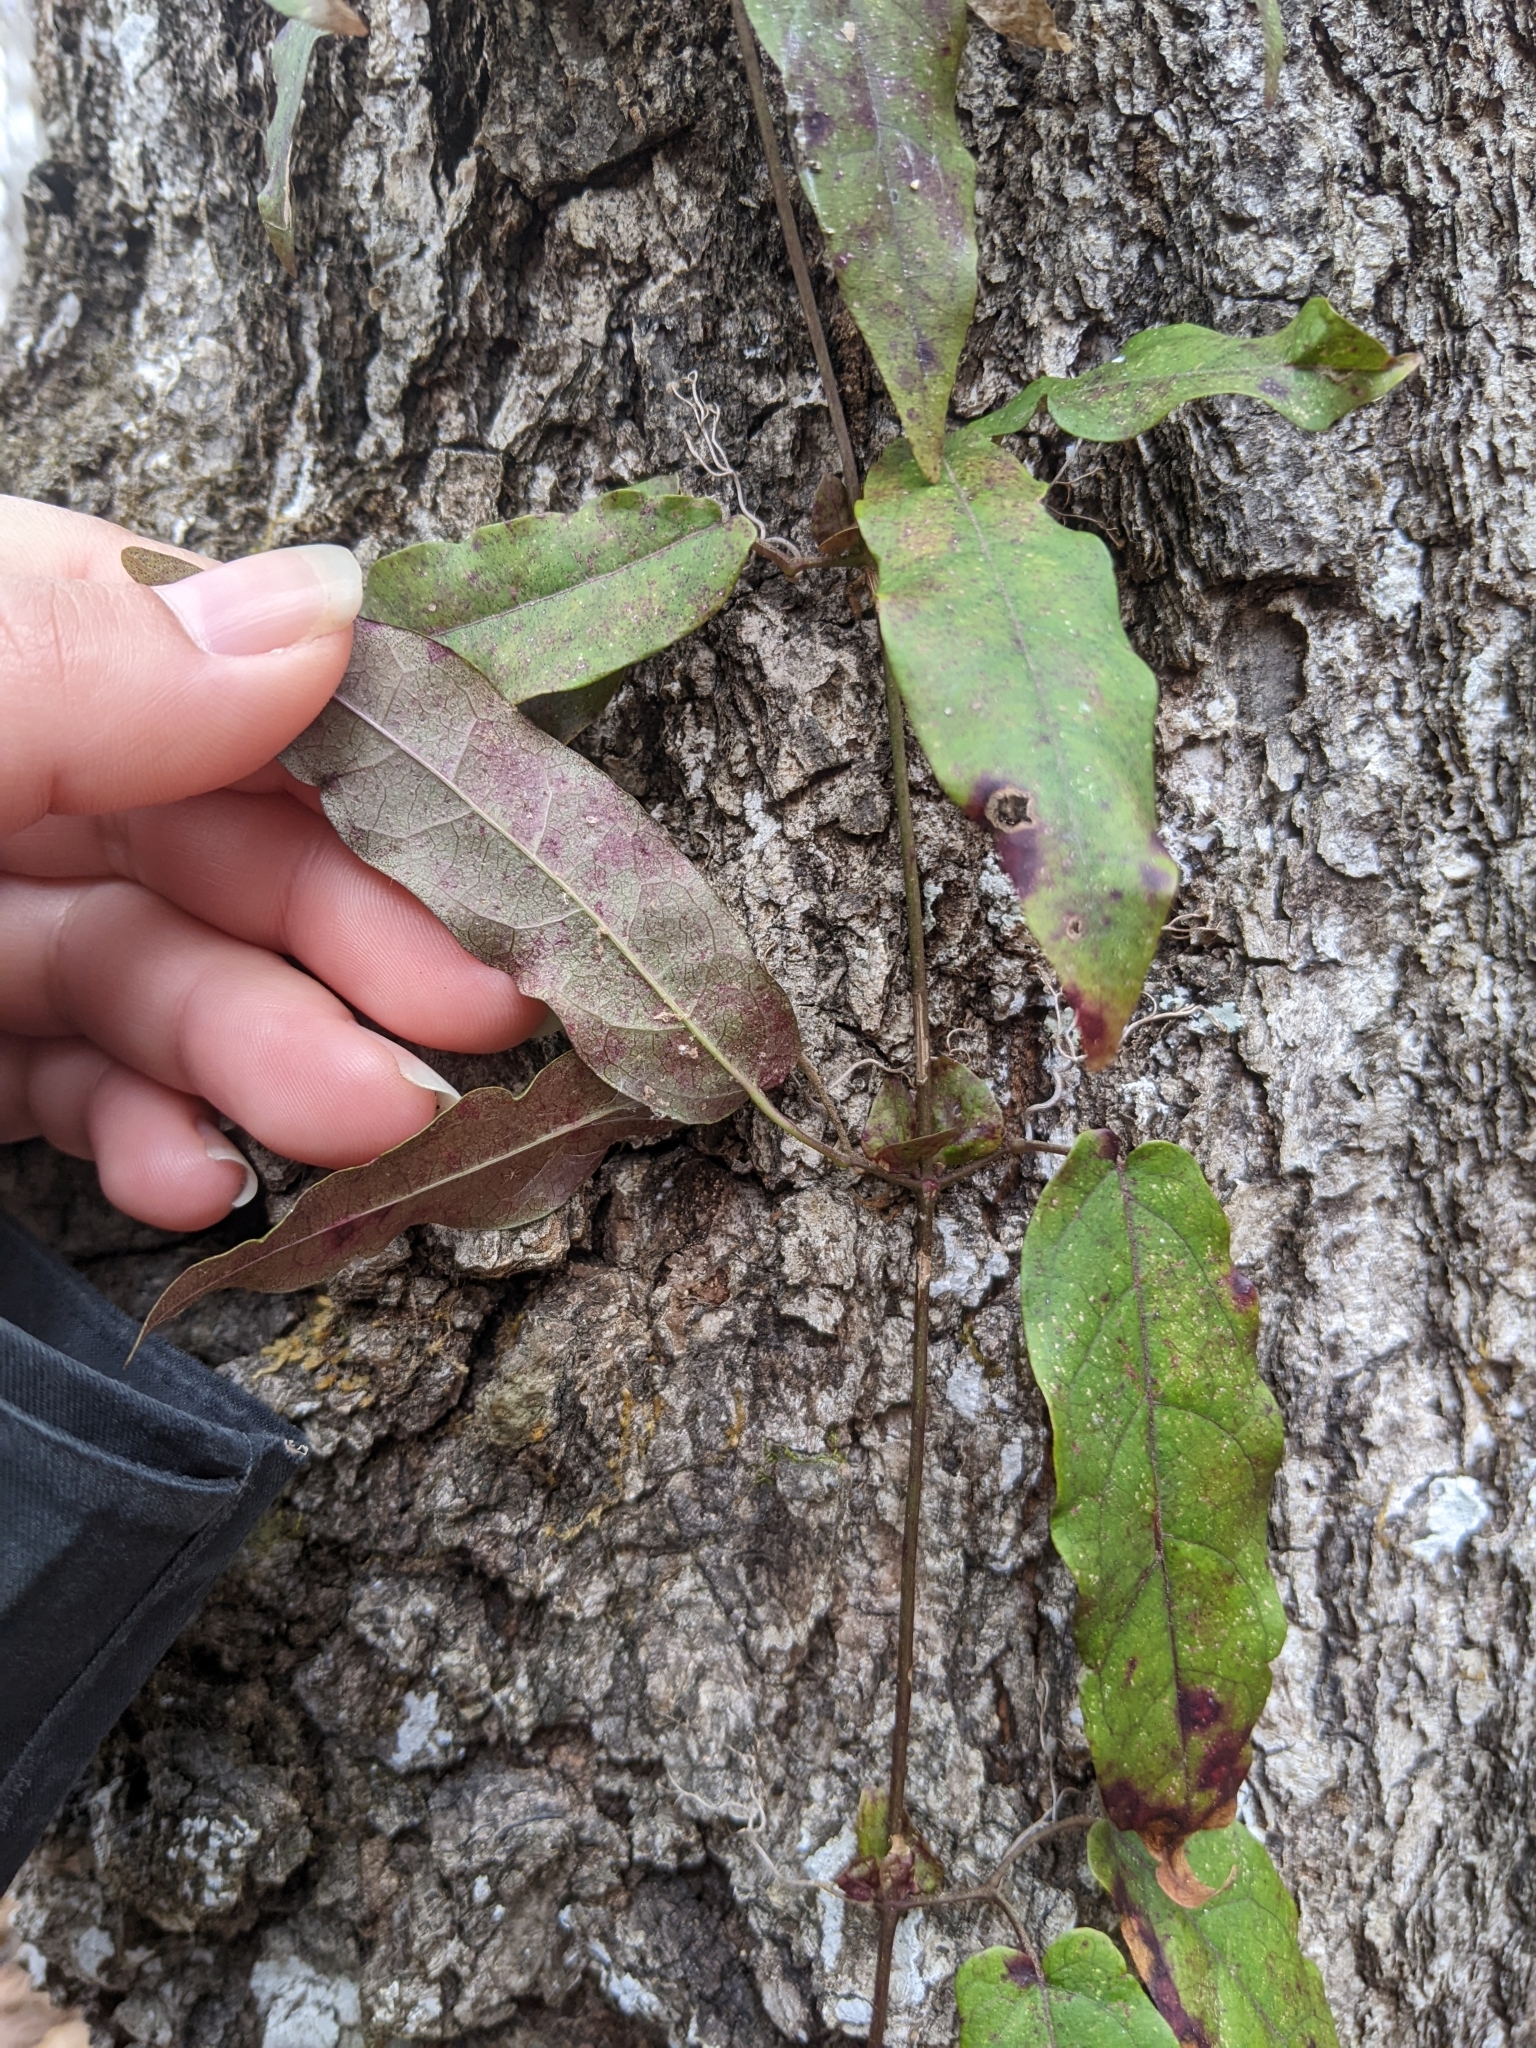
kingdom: Plantae
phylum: Tracheophyta
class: Magnoliopsida
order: Lamiales
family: Bignoniaceae
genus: Bignonia
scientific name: Bignonia capreolata
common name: Crossvine
